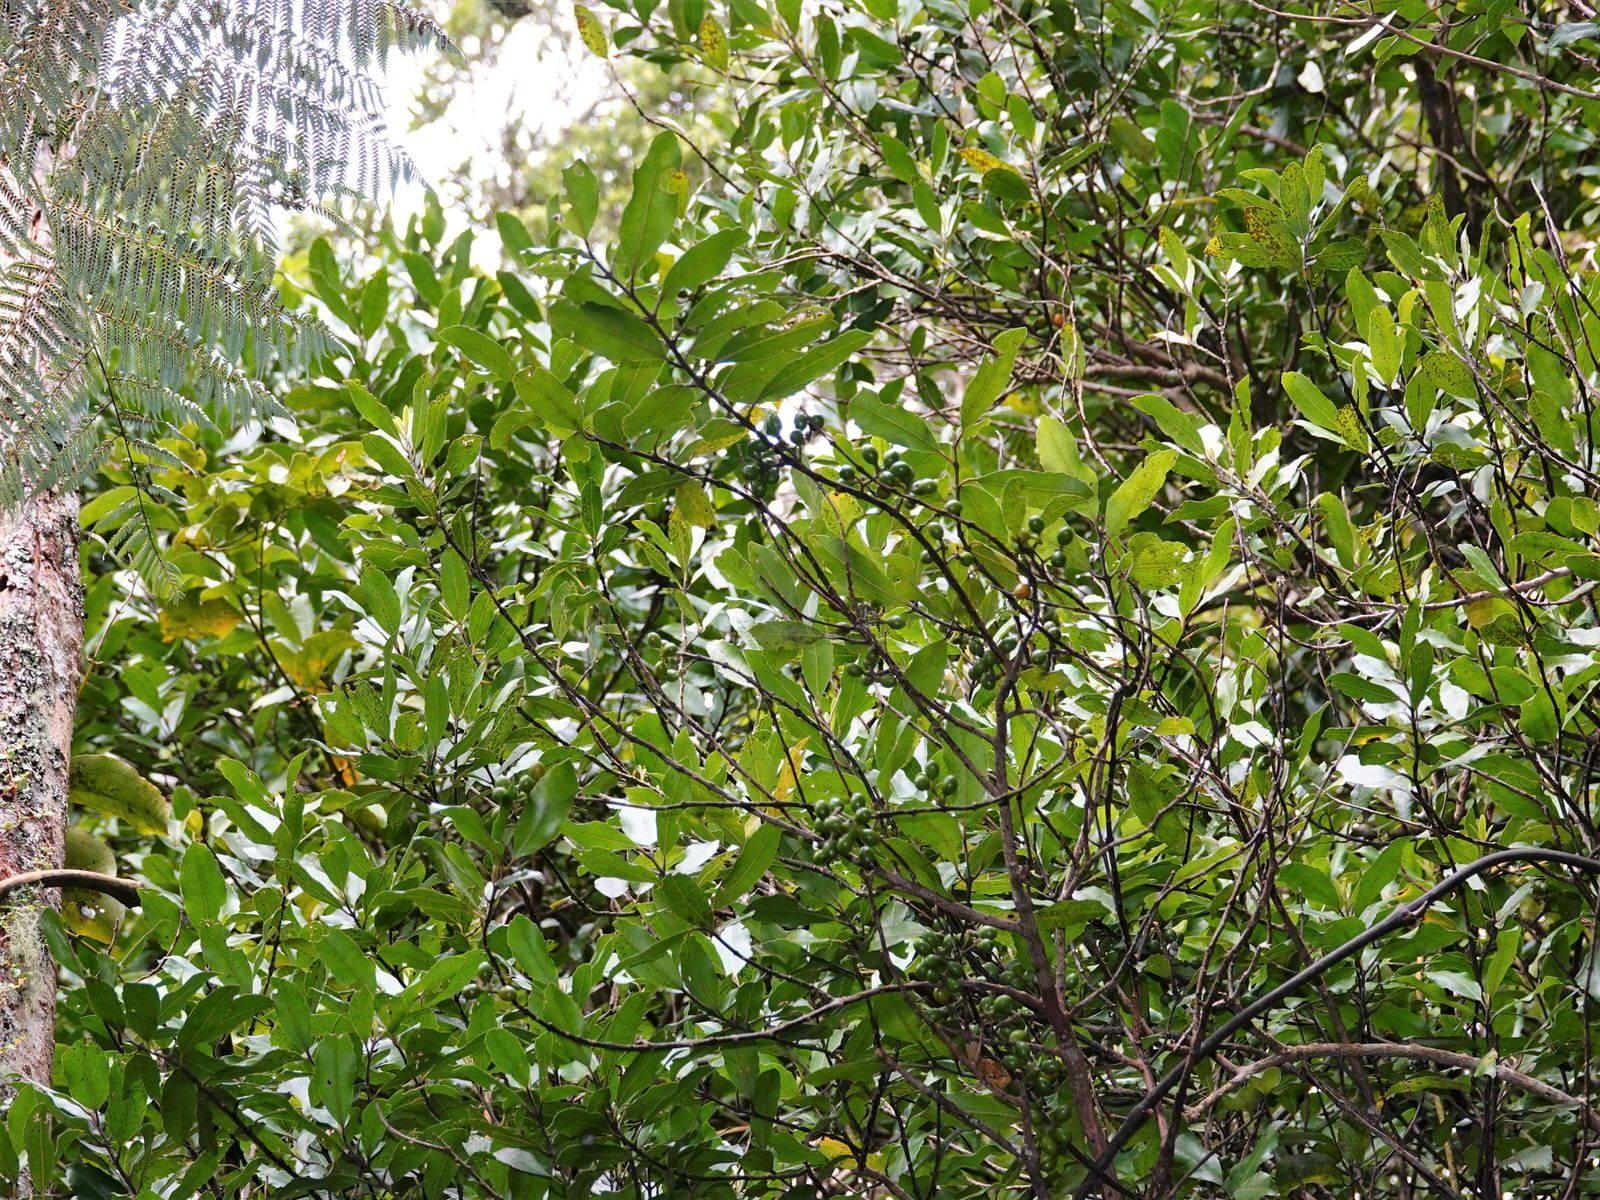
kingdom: Plantae
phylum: Tracheophyta
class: Magnoliopsida
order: Laurales
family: Monimiaceae
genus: Hedycarya
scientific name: Hedycarya arborea
